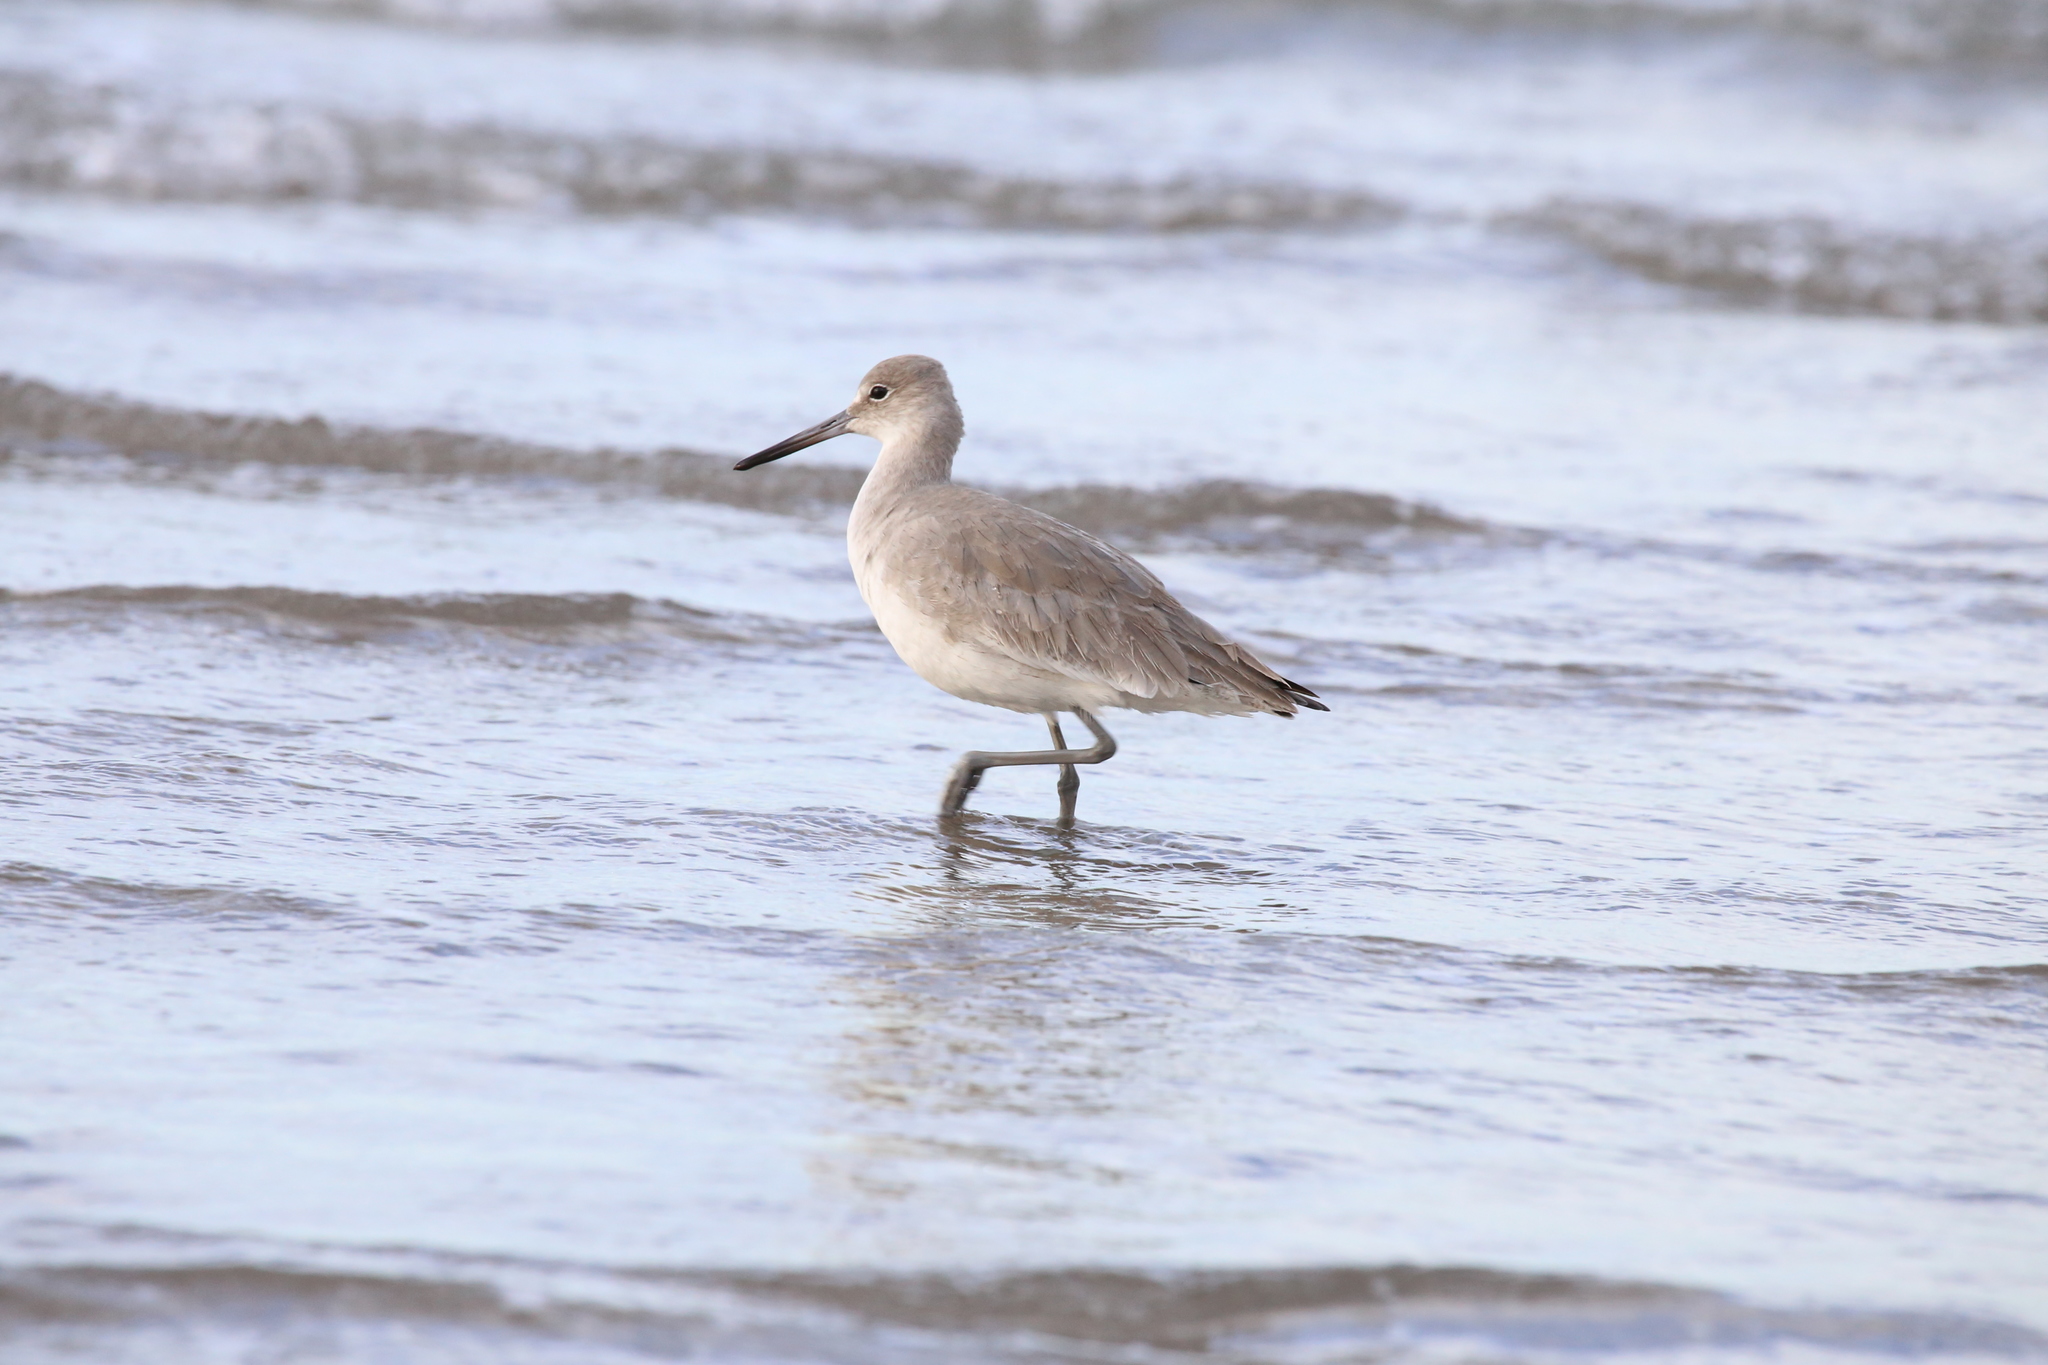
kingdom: Animalia
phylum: Chordata
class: Aves
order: Charadriiformes
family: Scolopacidae
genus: Tringa
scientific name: Tringa semipalmata
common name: Willet
